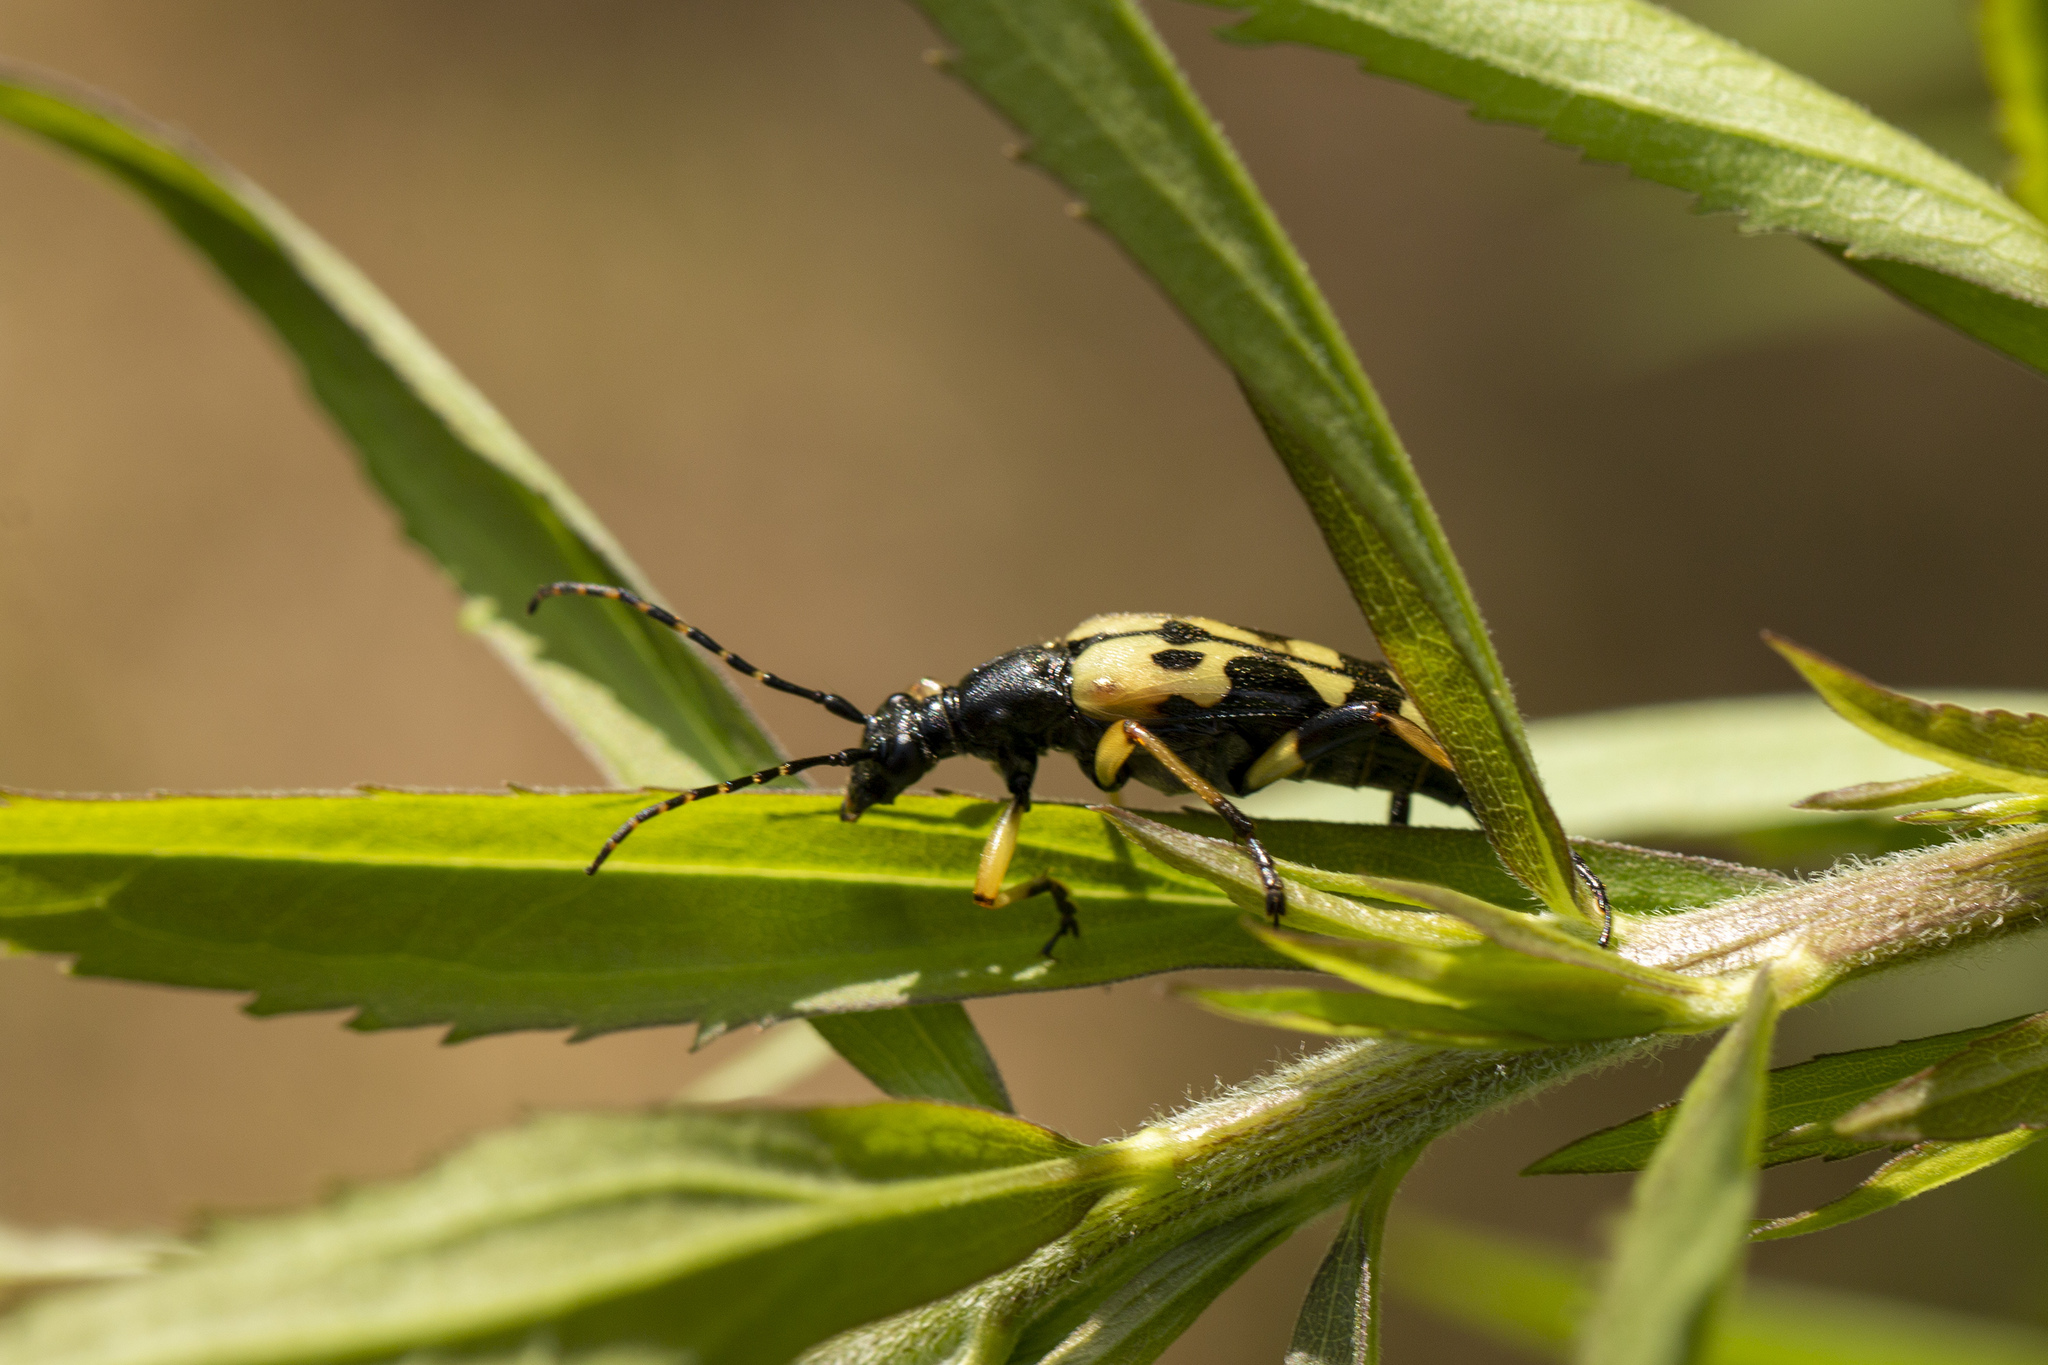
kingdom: Animalia
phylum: Arthropoda
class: Insecta
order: Coleoptera
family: Cerambycidae
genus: Rutpela
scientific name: Rutpela maculata
